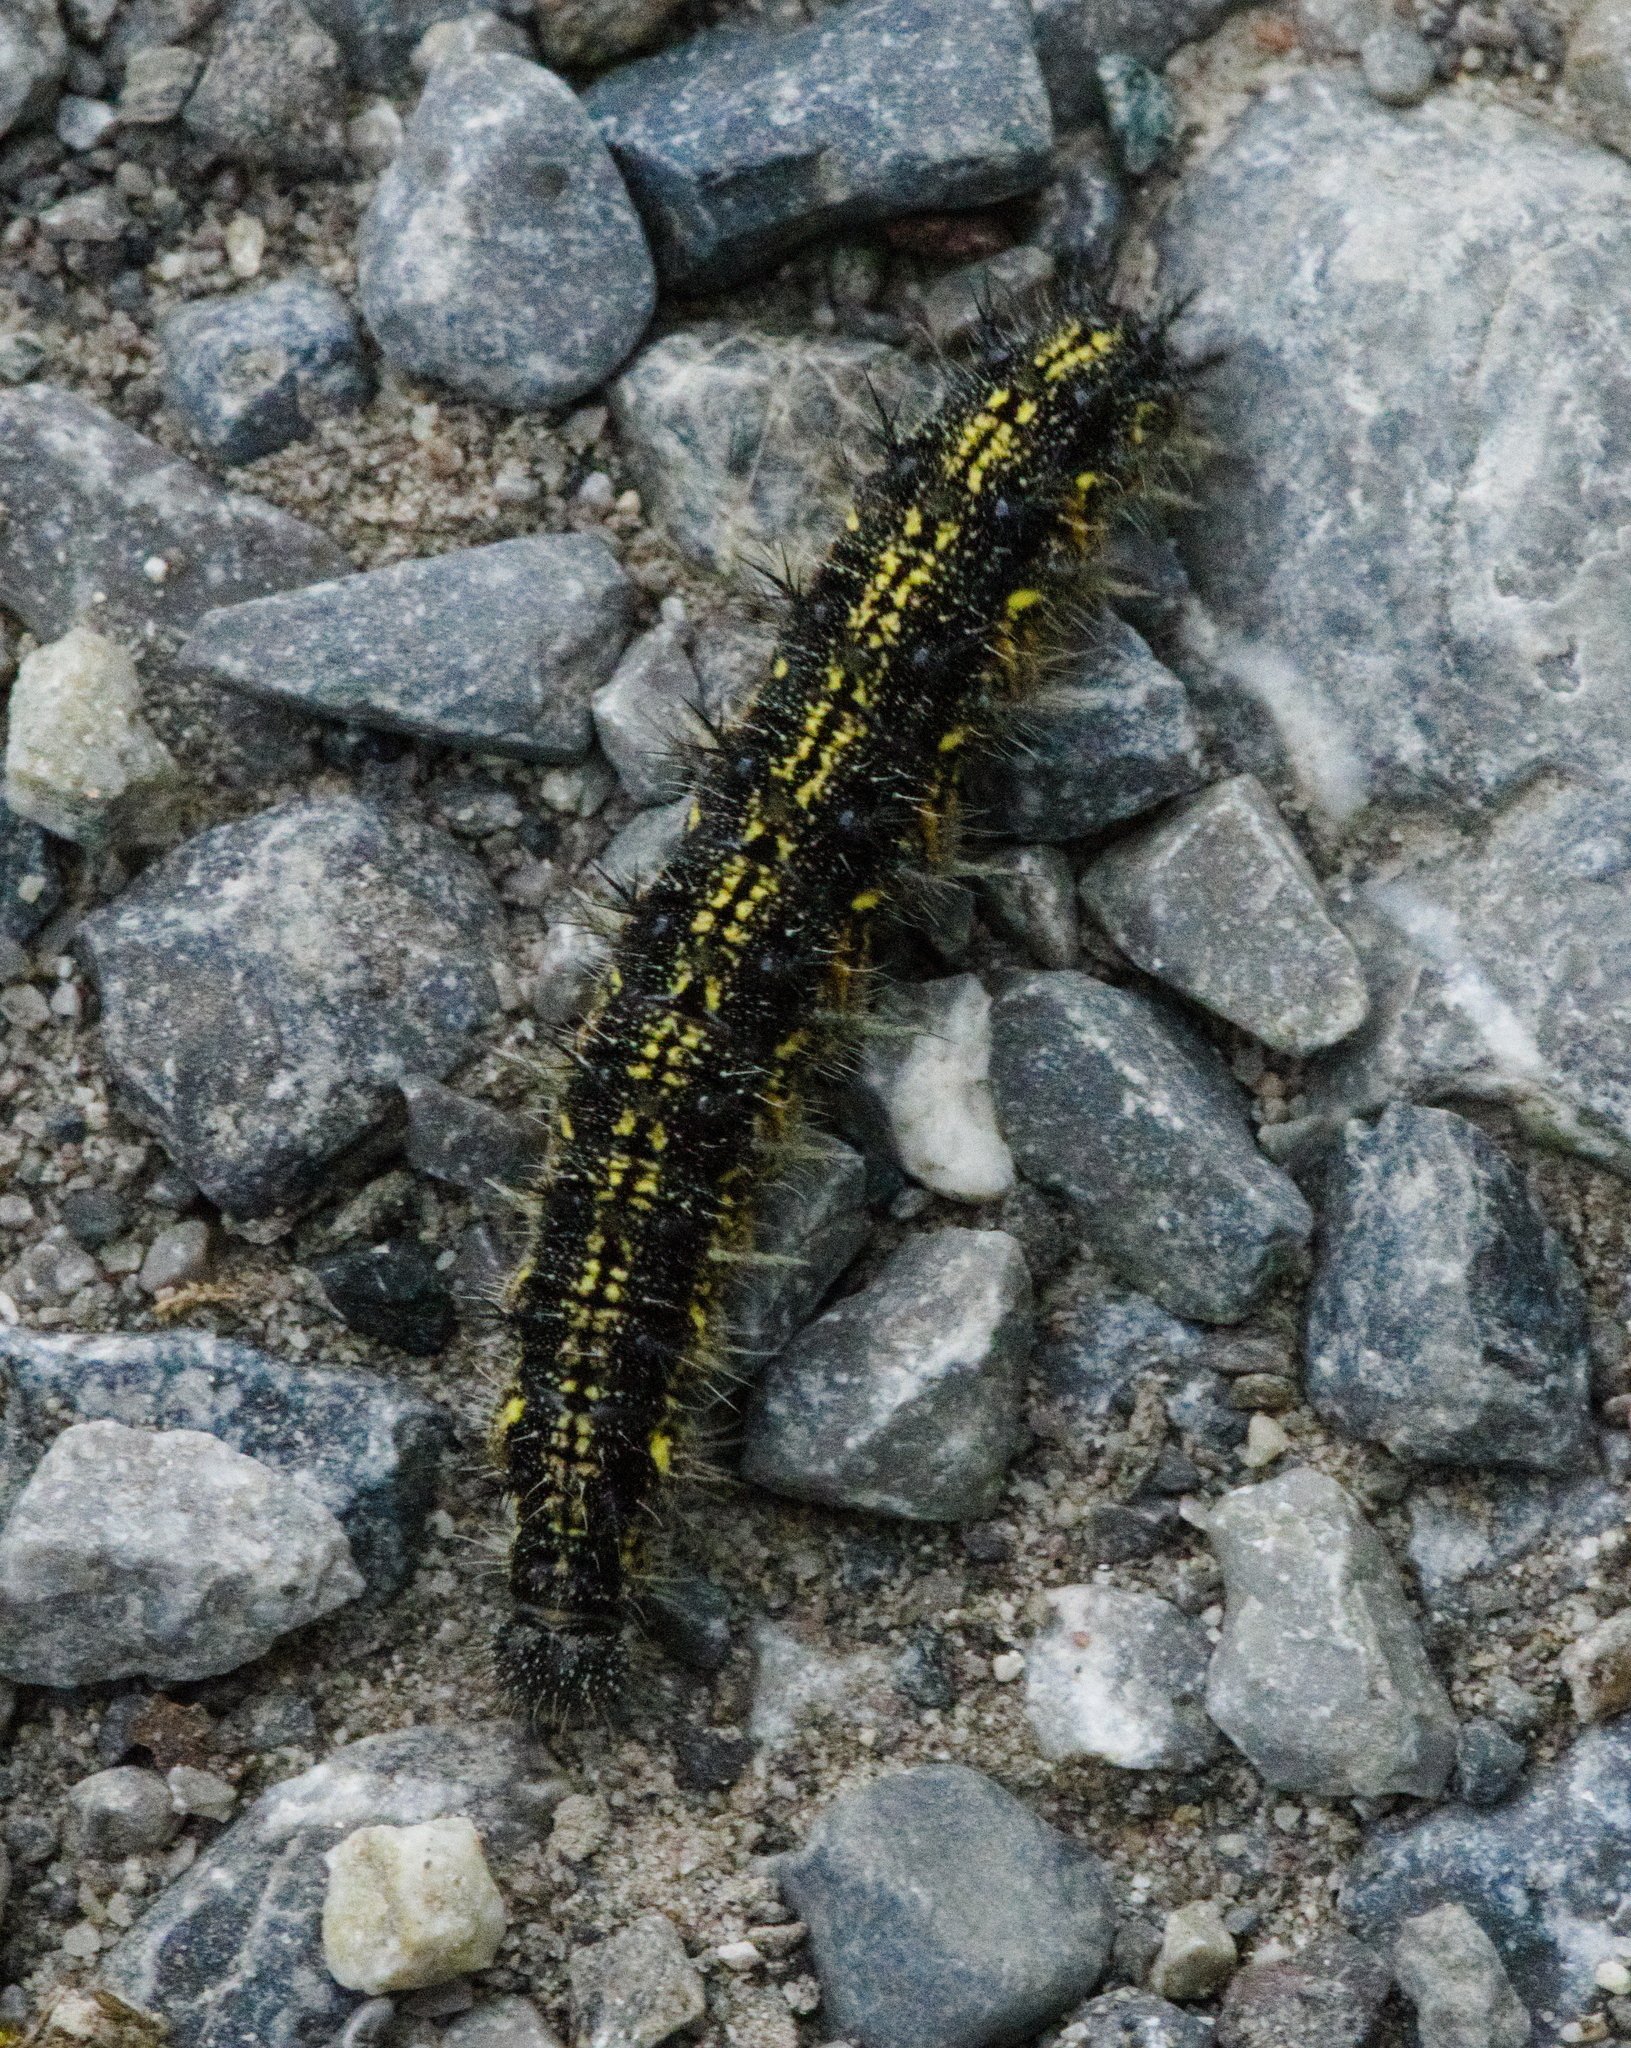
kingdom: Animalia
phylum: Arthropoda
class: Insecta
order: Lepidoptera
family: Nymphalidae
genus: Aglais
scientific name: Aglais urticae
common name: Small tortoiseshell
